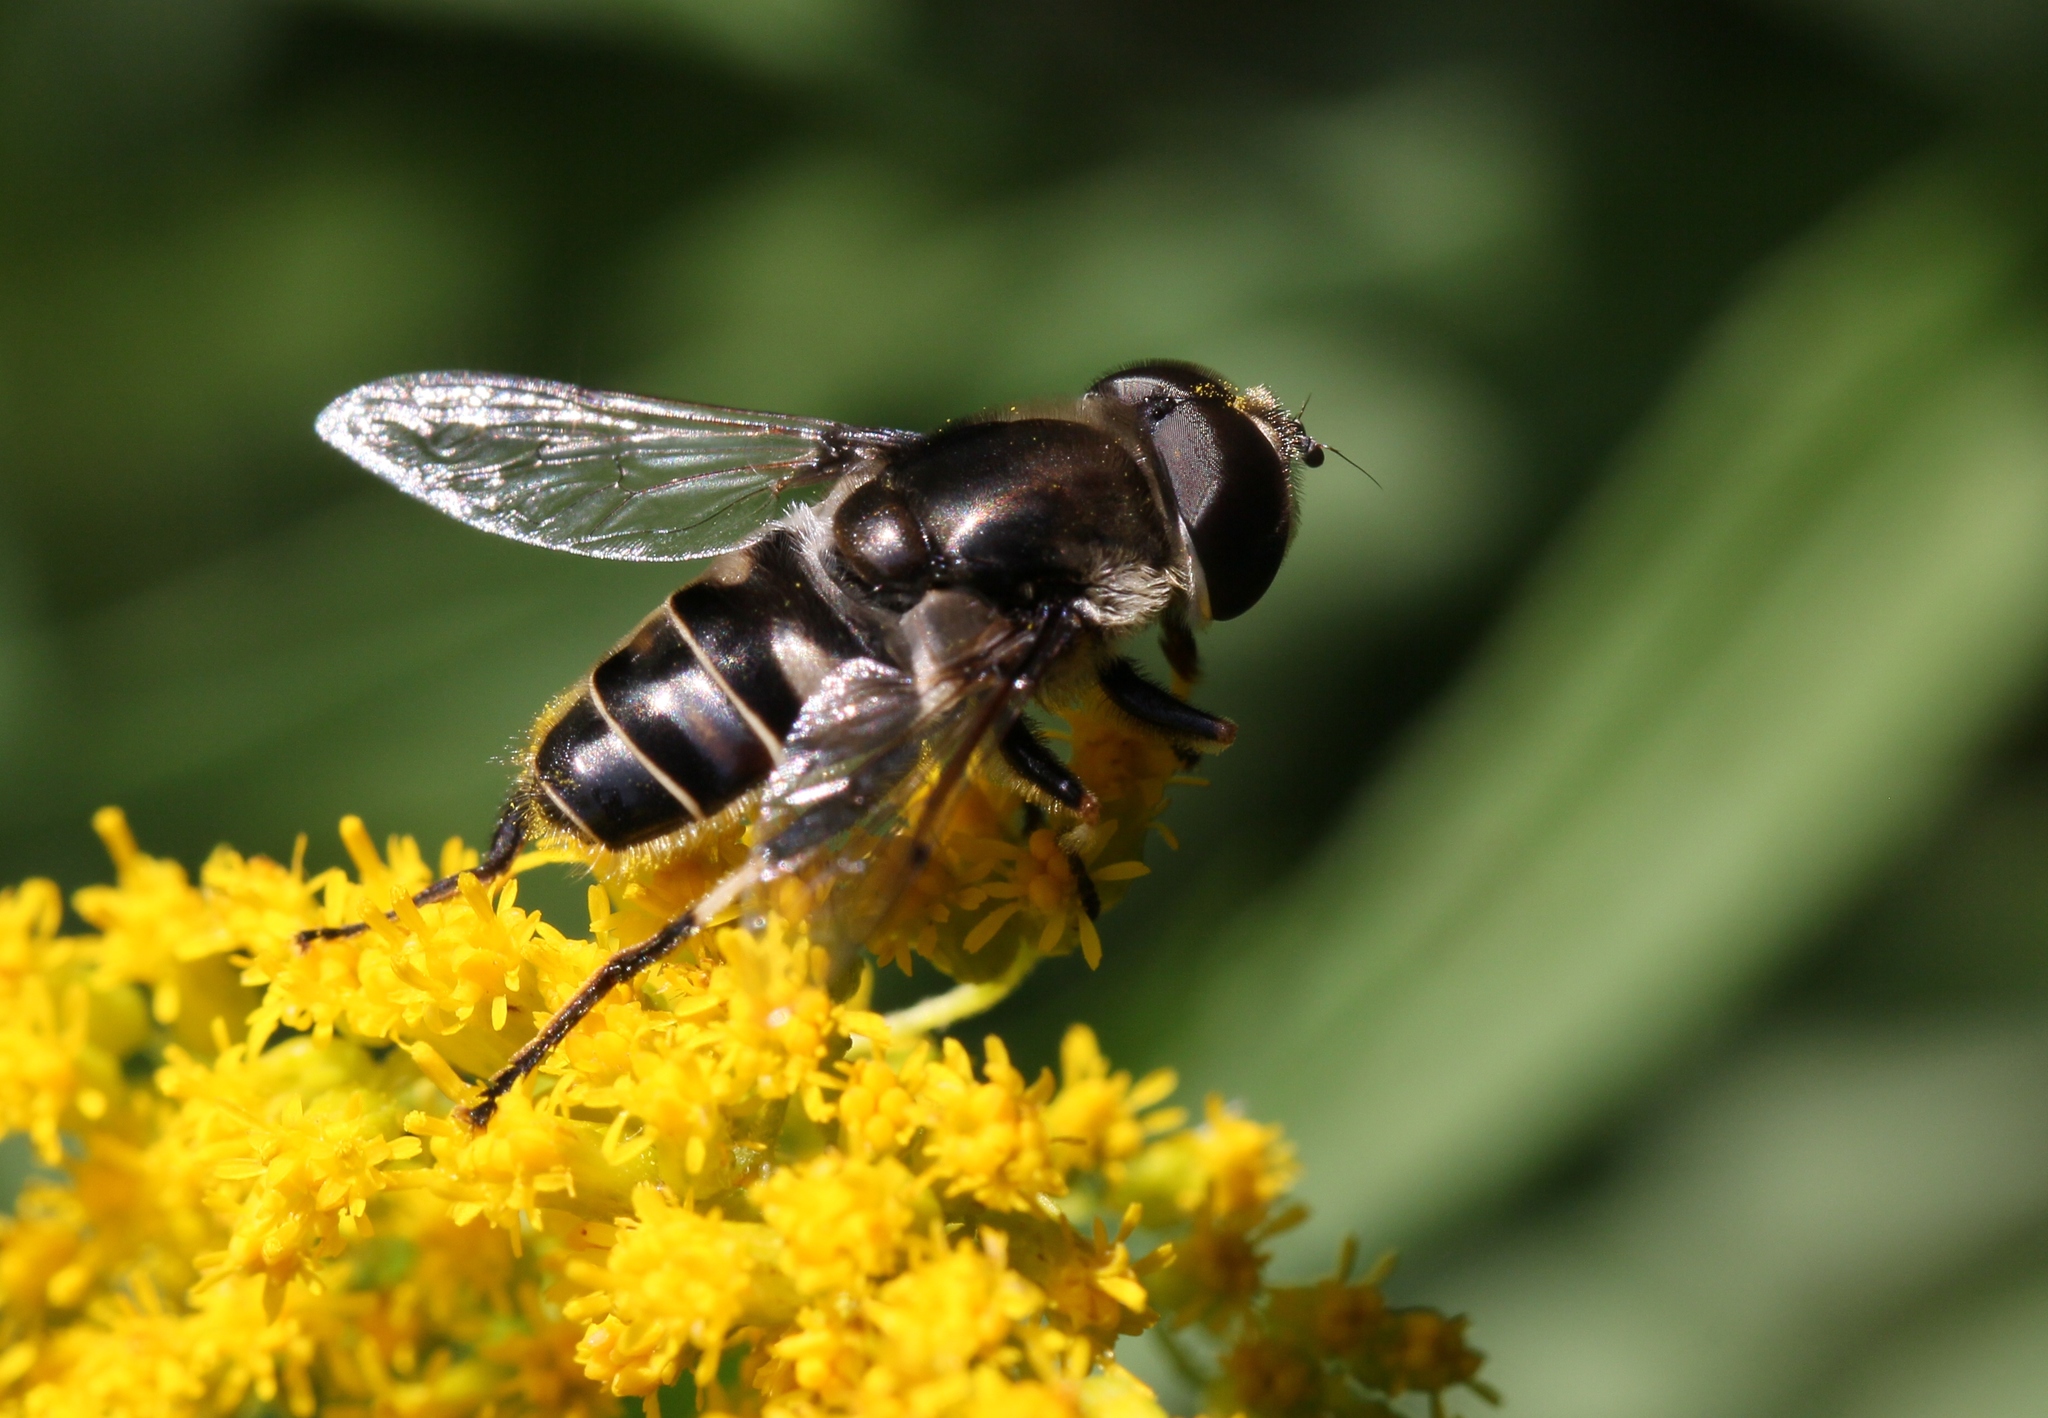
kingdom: Animalia
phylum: Arthropoda
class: Insecta
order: Diptera
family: Syrphidae
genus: Eristalis
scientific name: Eristalis dimidiata
